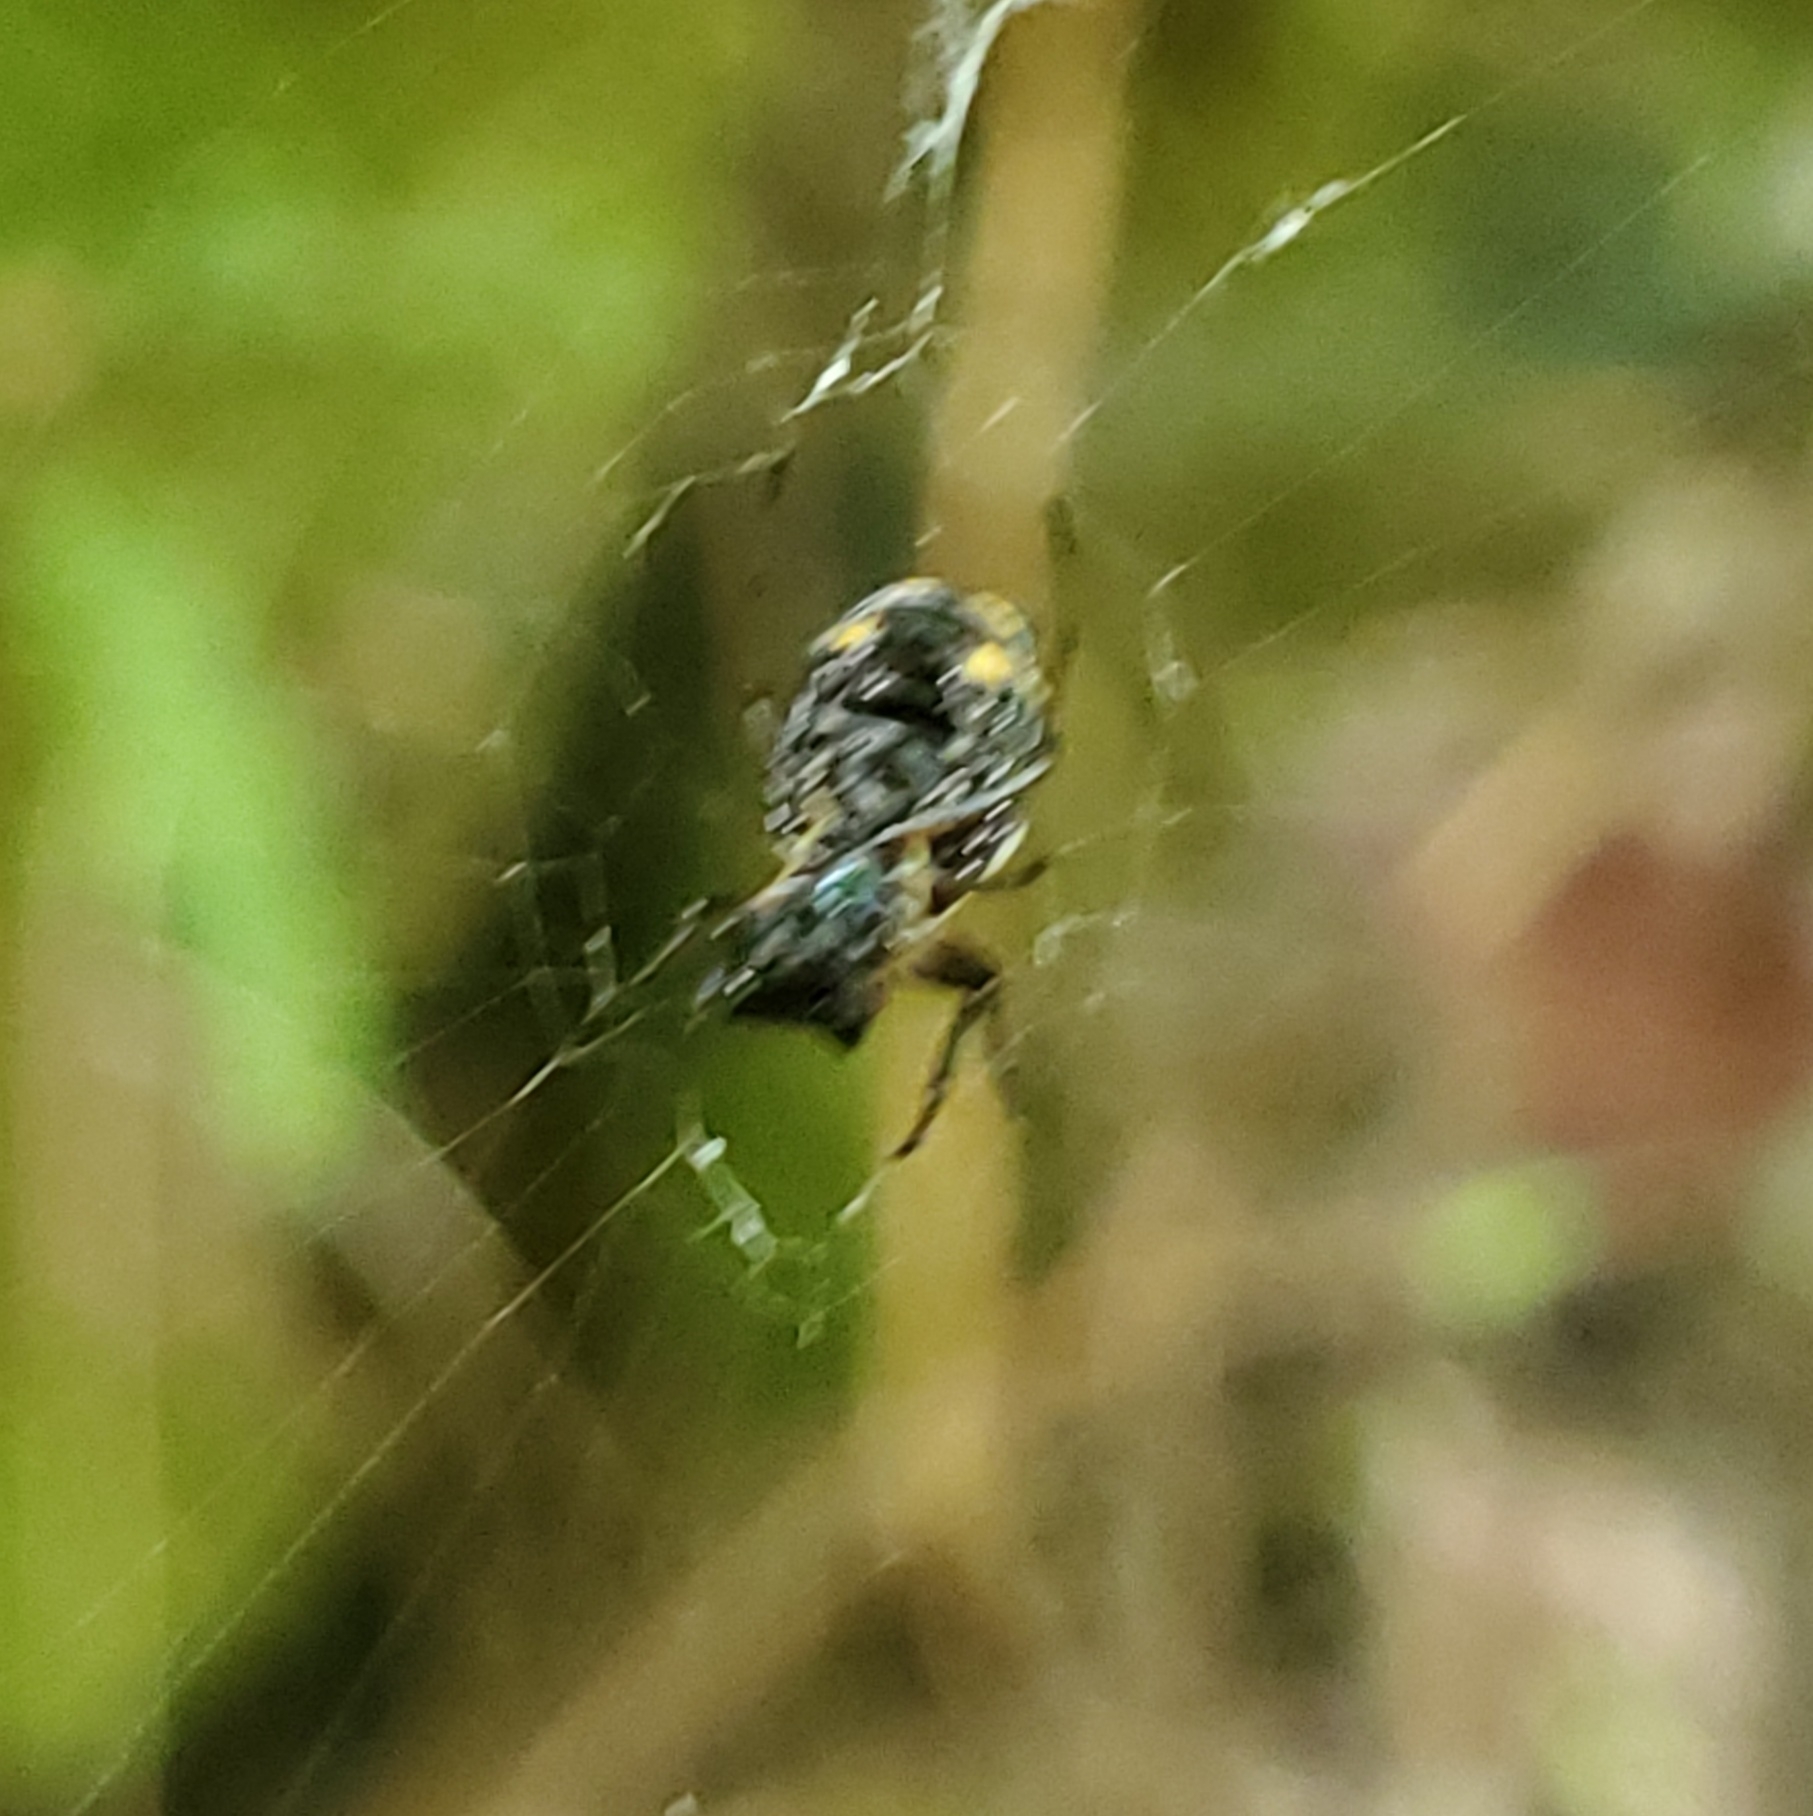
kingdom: Animalia
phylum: Arthropoda
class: Arachnida
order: Araneae
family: Araneidae
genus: Micrathena
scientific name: Micrathena mitrata
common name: Orb weavers
